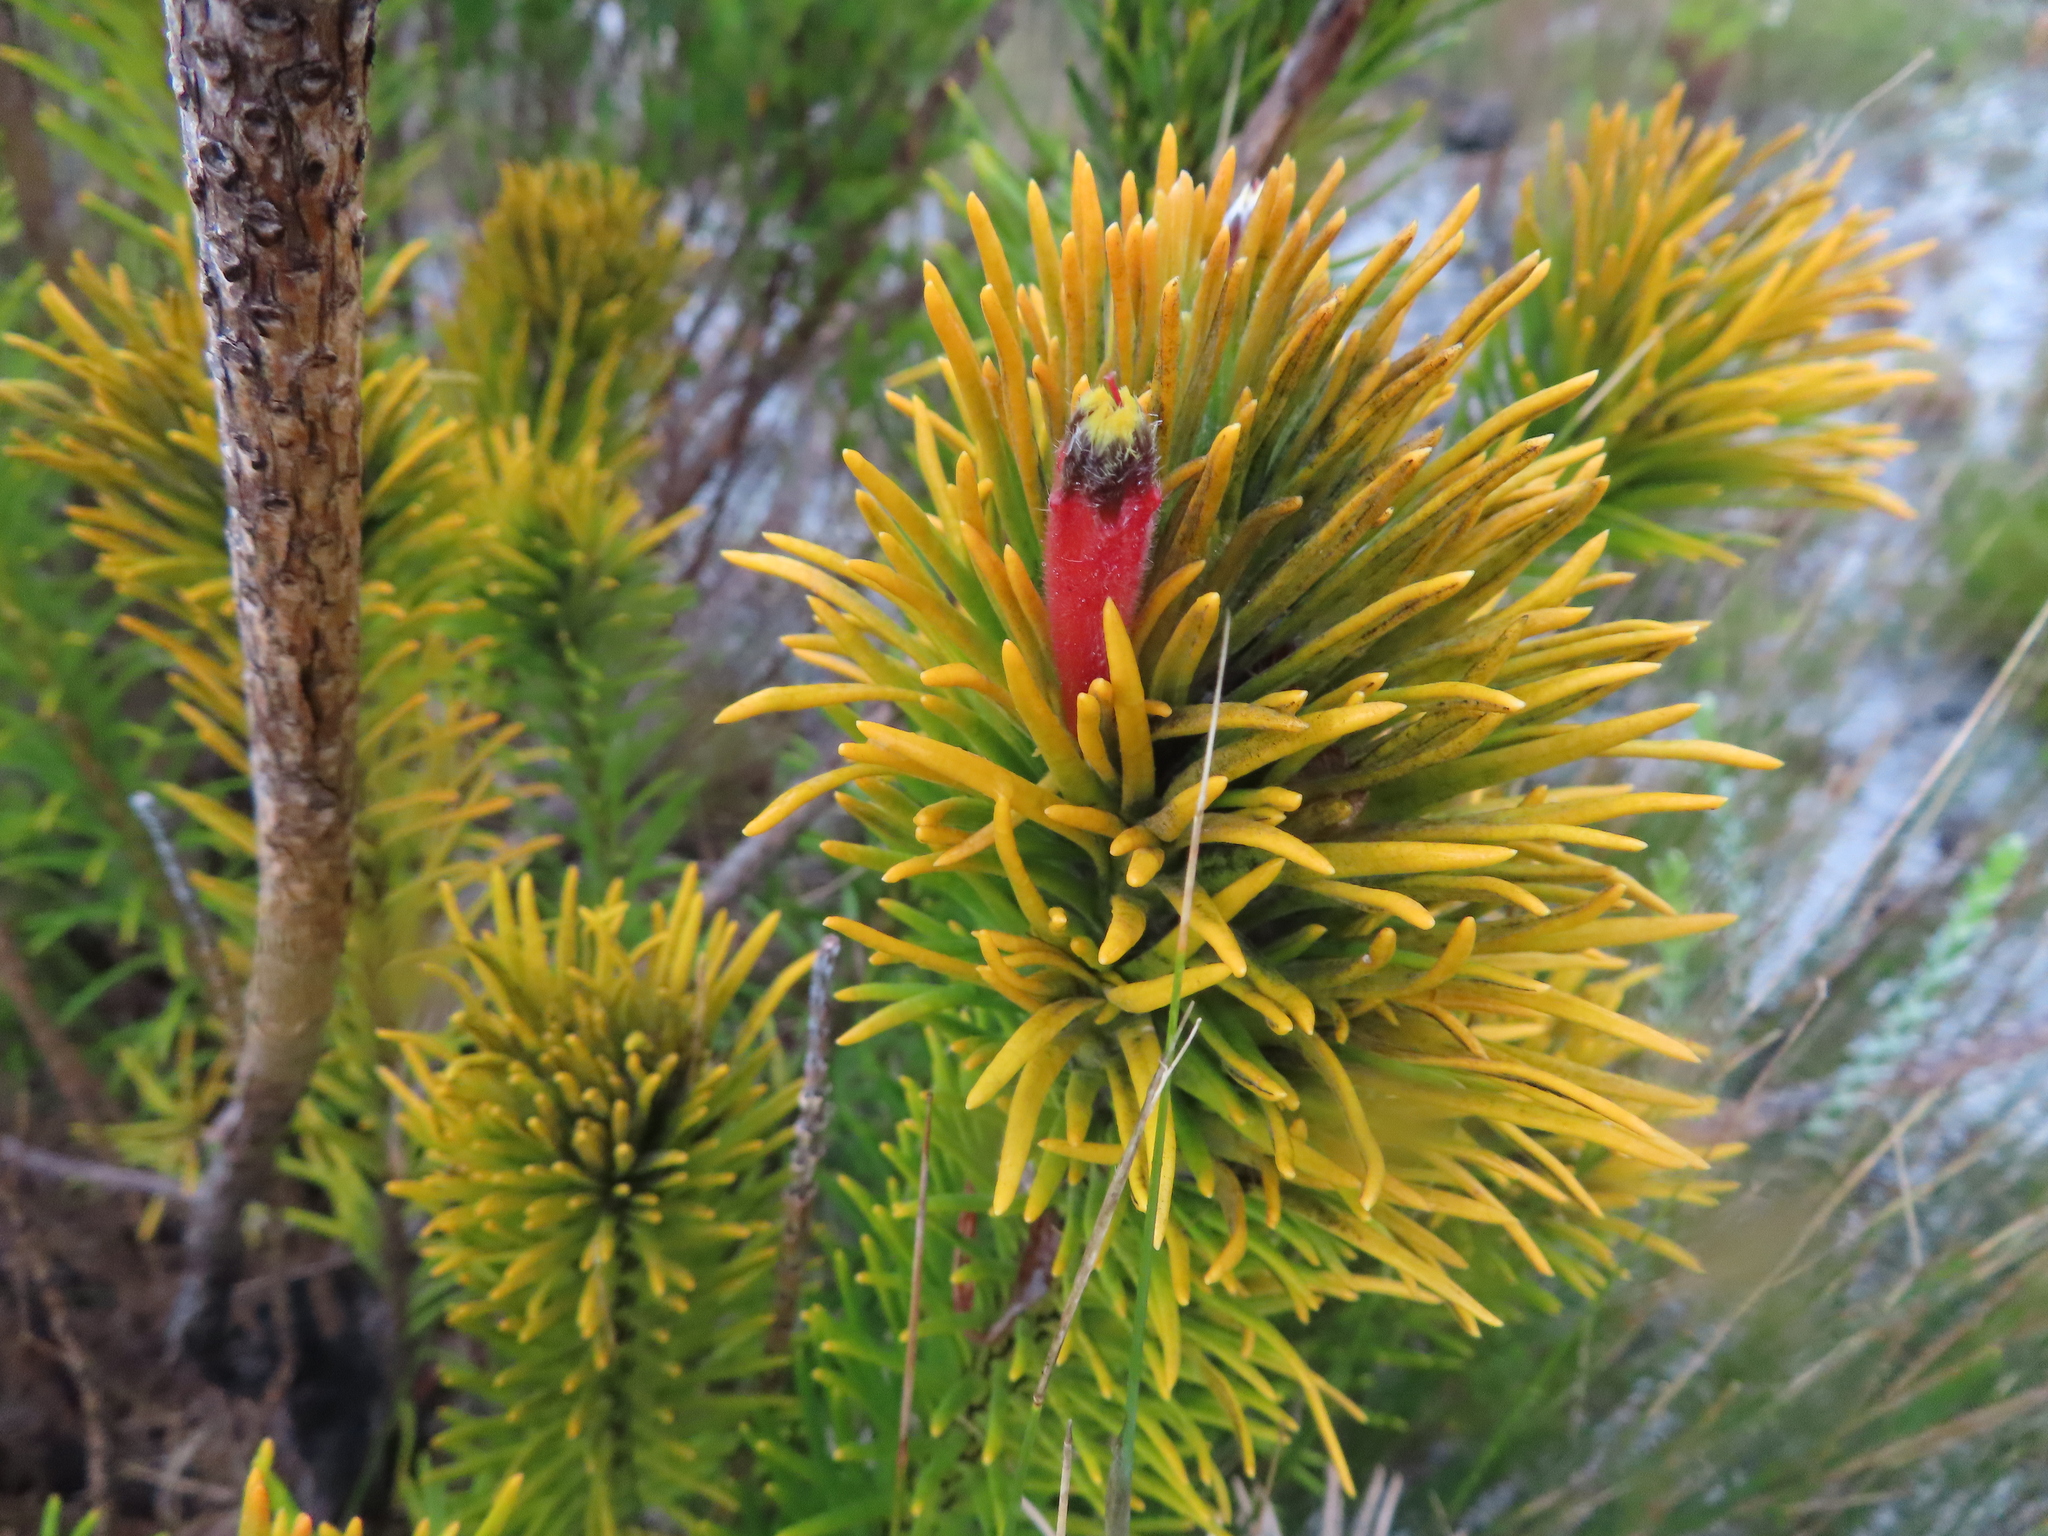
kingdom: Plantae
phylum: Tracheophyta
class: Magnoliopsida
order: Lamiales
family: Stilbaceae
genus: Retzia
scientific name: Retzia capensis
